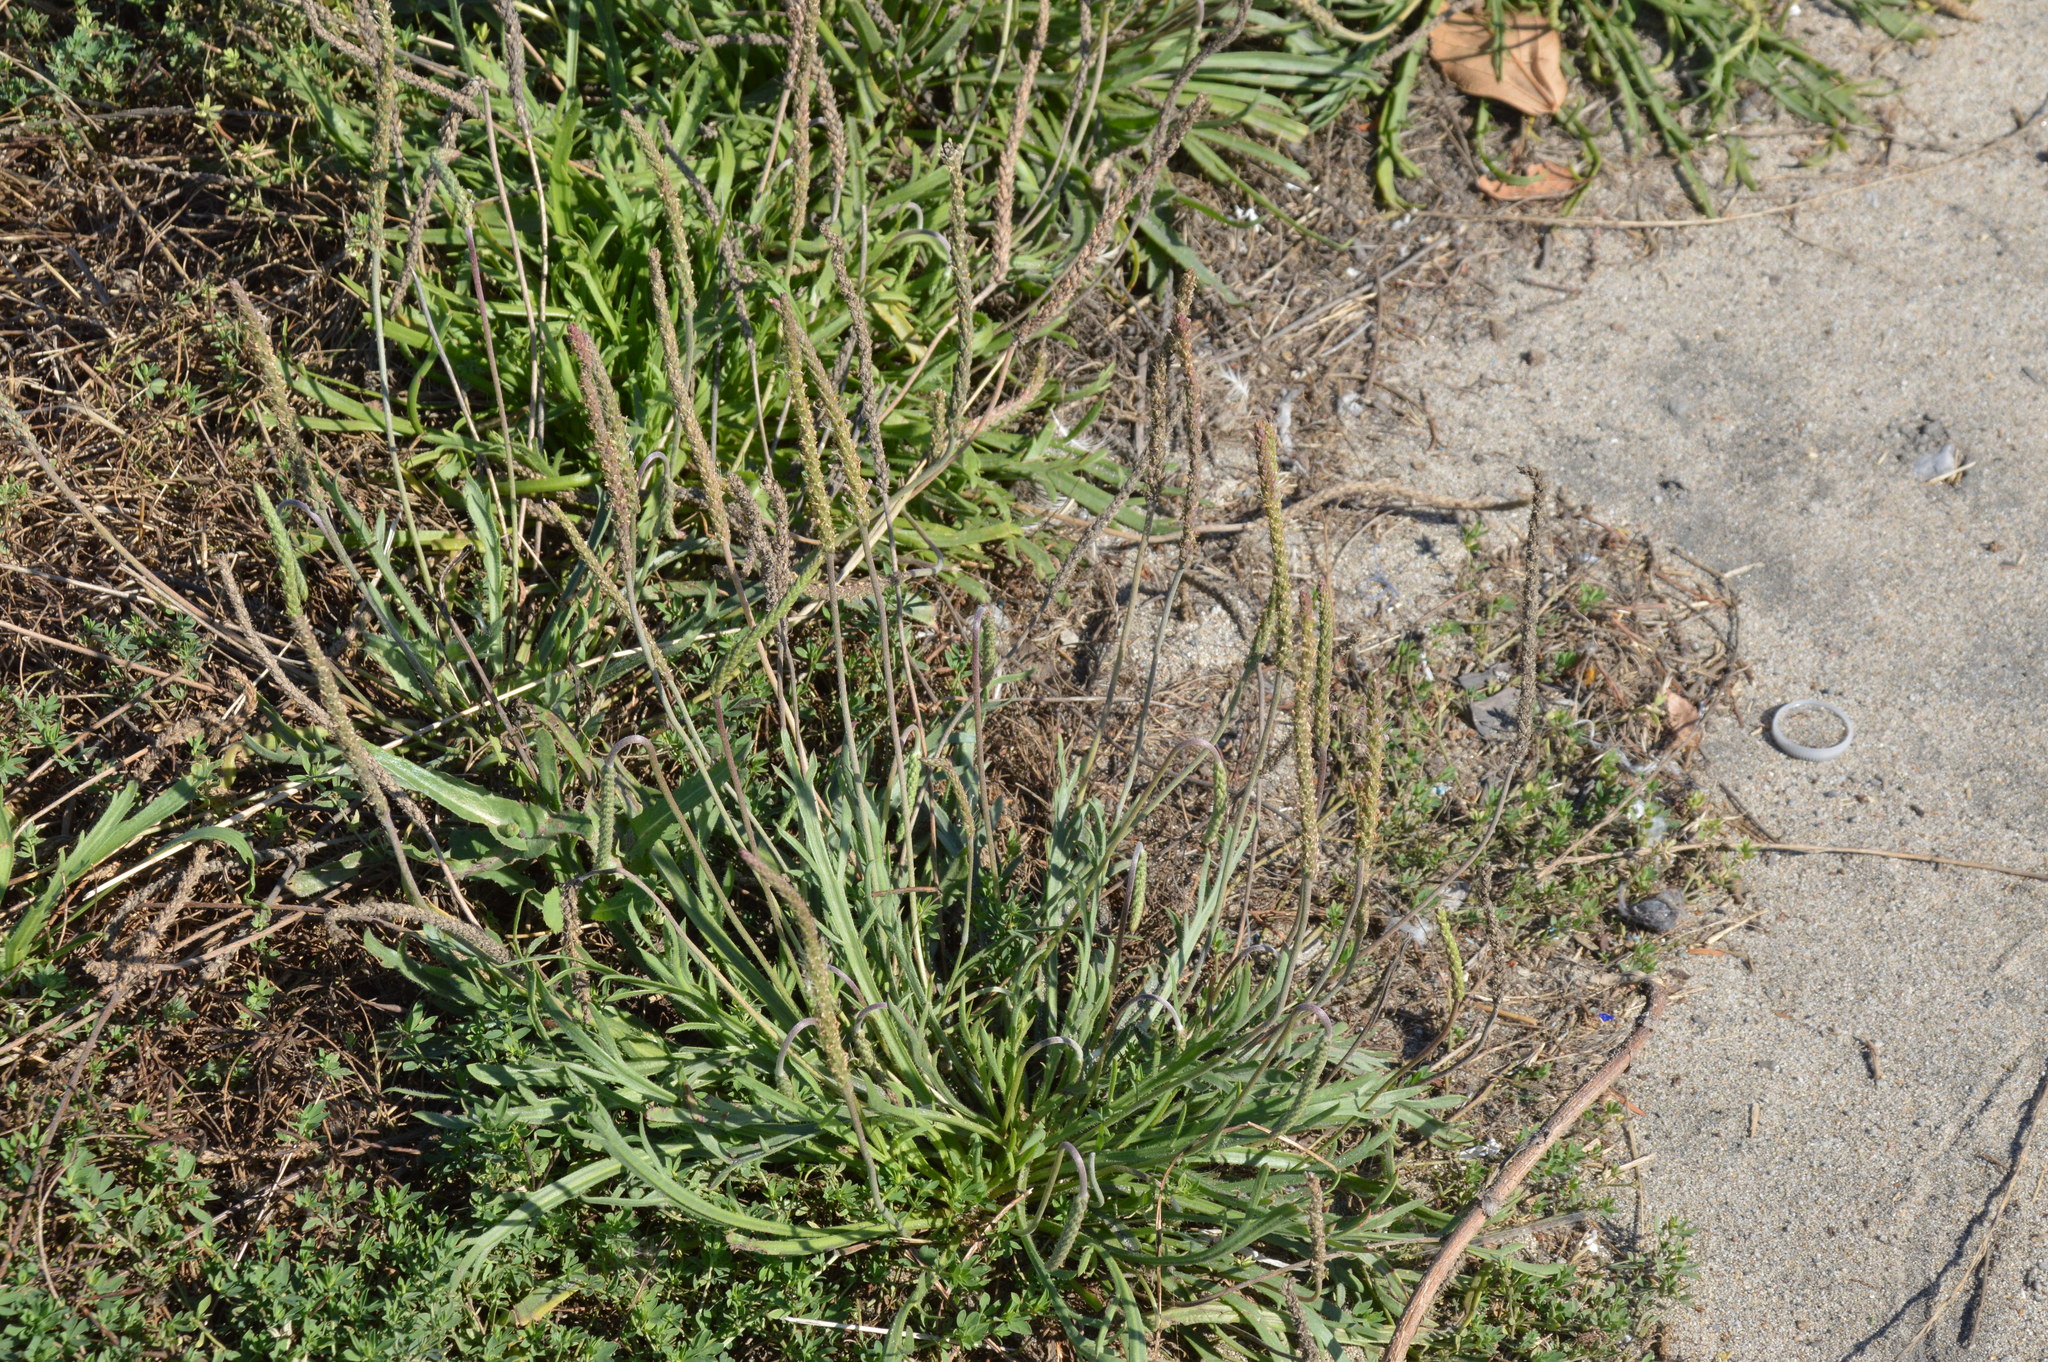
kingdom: Plantae
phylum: Tracheophyta
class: Magnoliopsida
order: Lamiales
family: Plantaginaceae
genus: Plantago
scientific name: Plantago coronopus
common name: Buck's-horn plantain
